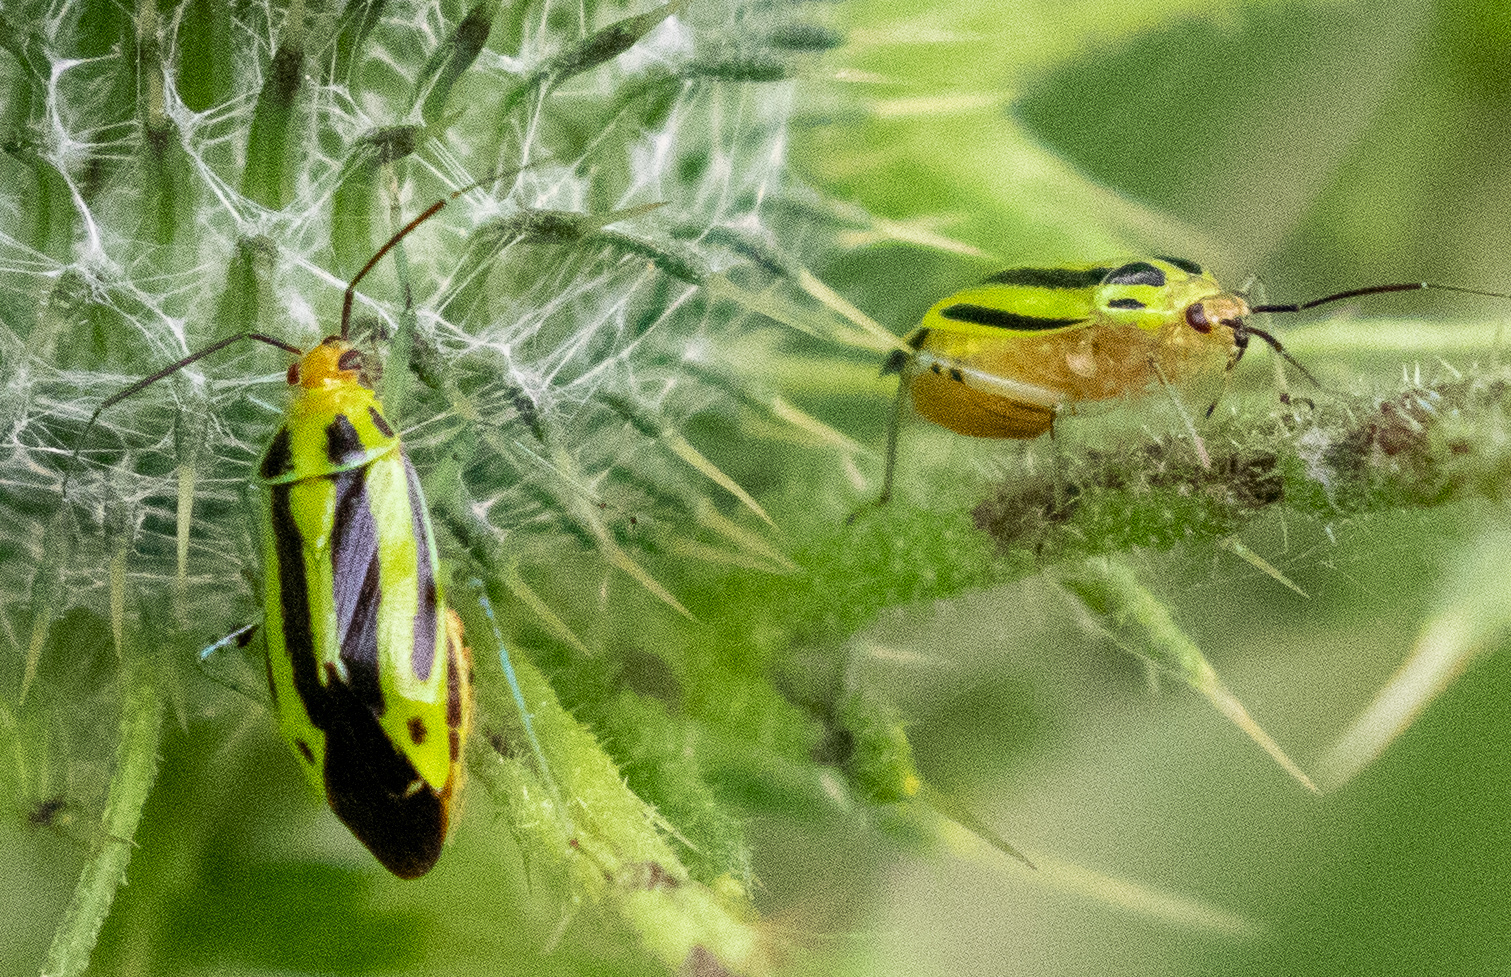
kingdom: Animalia
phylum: Arthropoda
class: Insecta
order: Hemiptera
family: Miridae
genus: Poecilocapsus
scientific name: Poecilocapsus lineatus
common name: Four-lined plant bug
